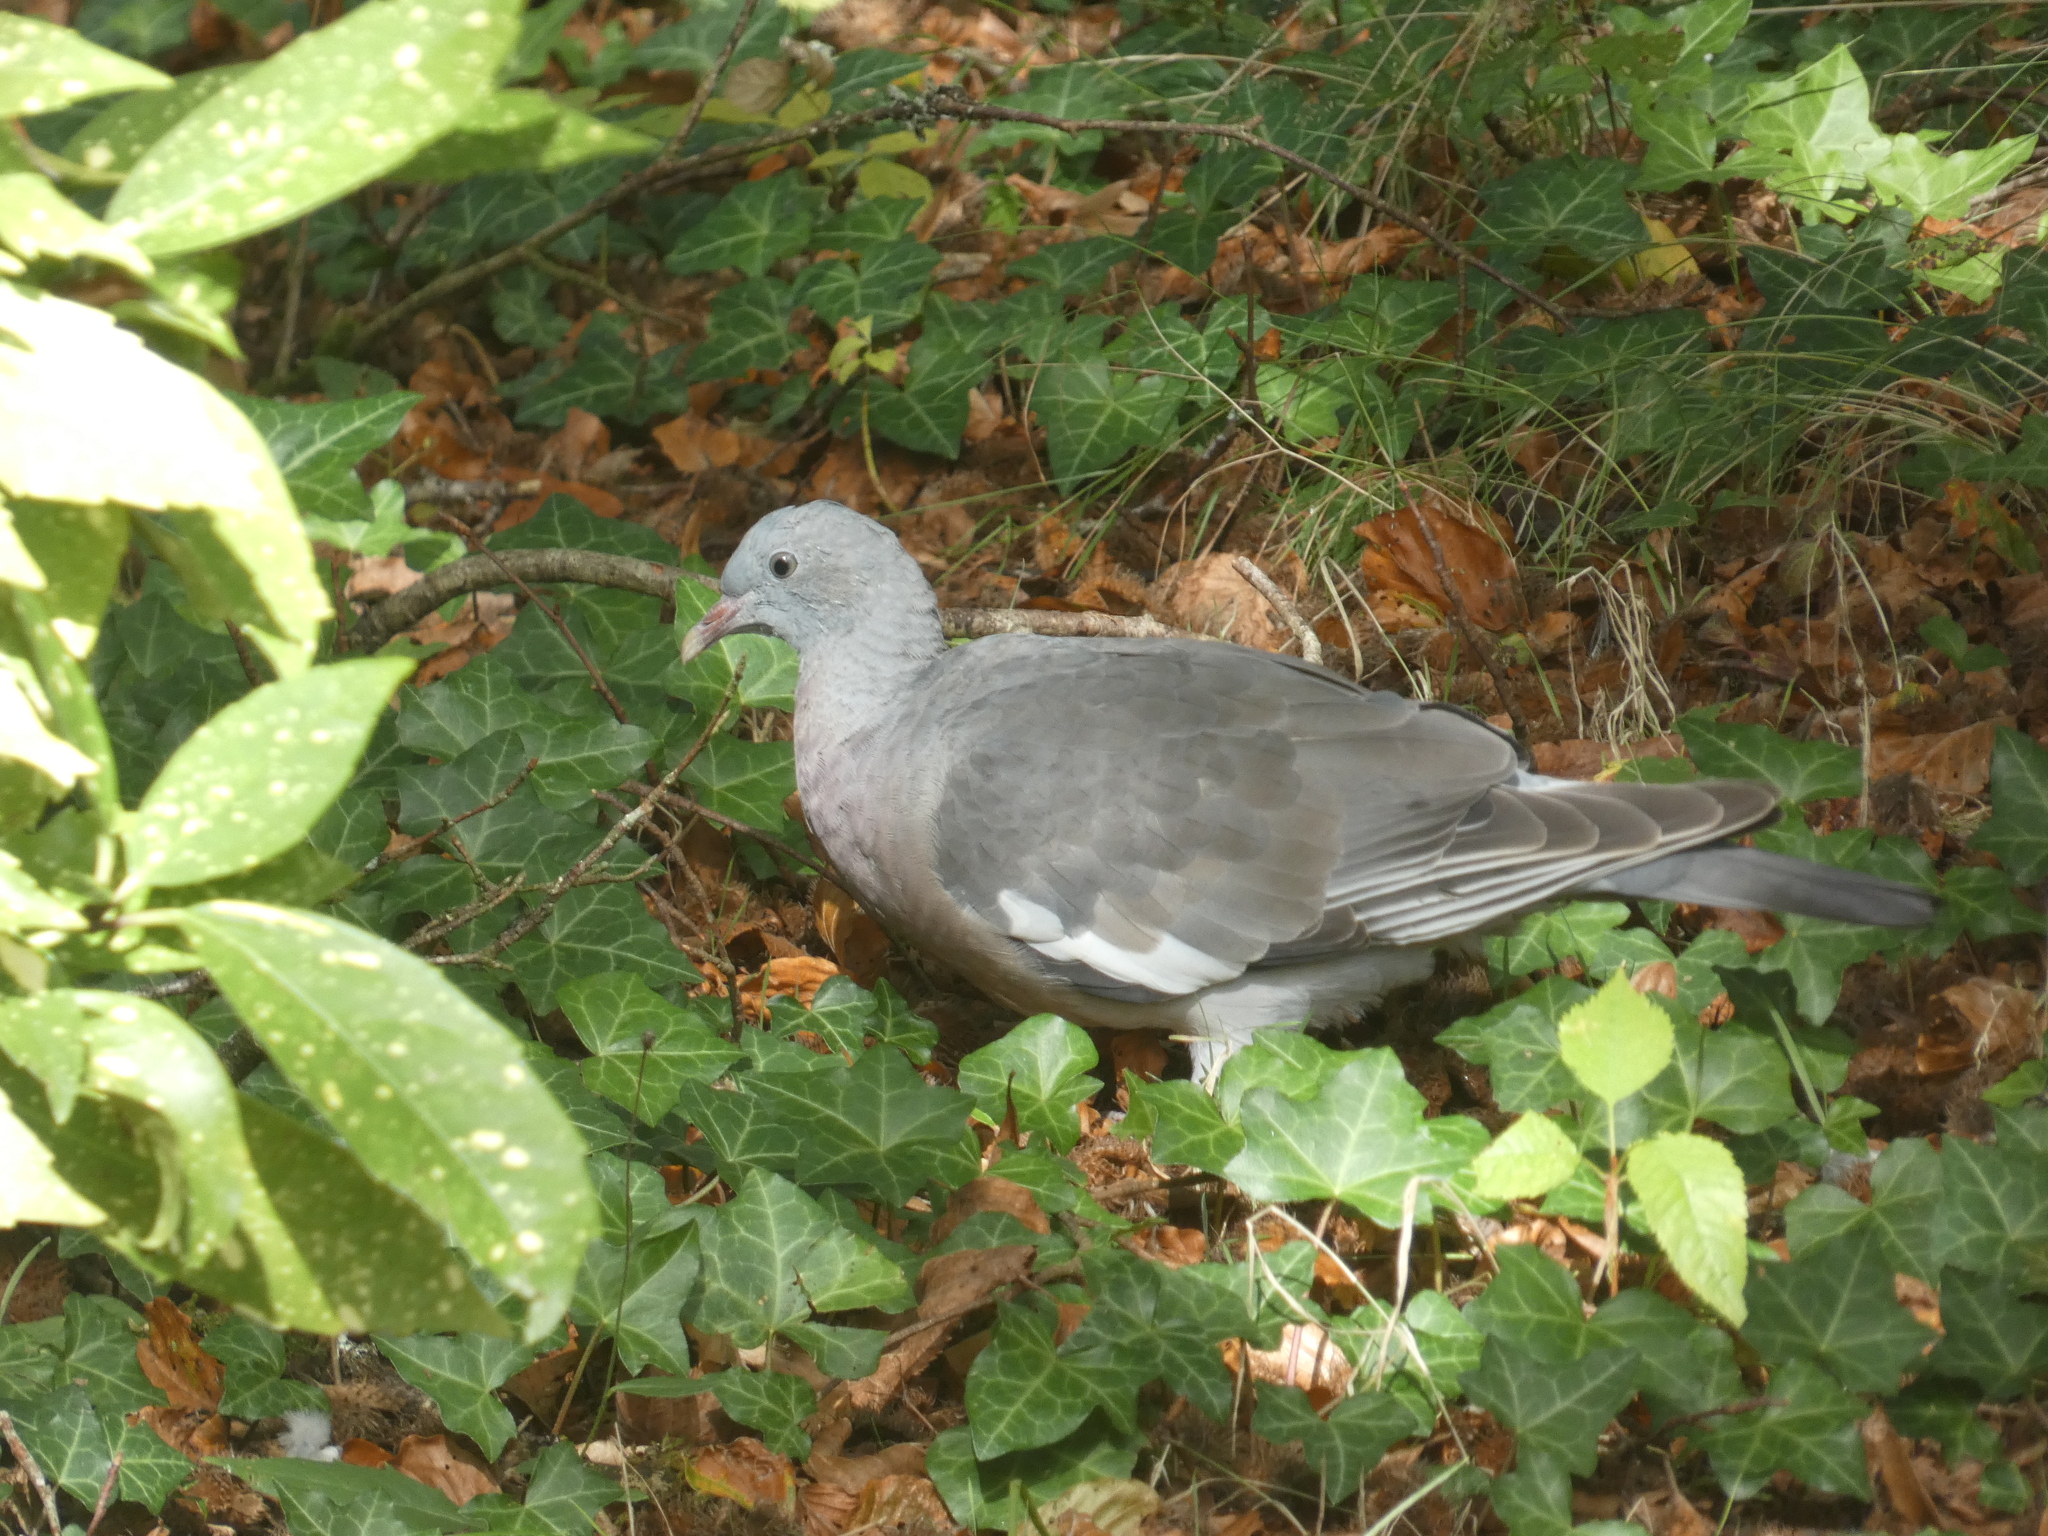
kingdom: Animalia
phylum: Chordata
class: Aves
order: Columbiformes
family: Columbidae
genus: Columba
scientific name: Columba palumbus
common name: Common wood pigeon
